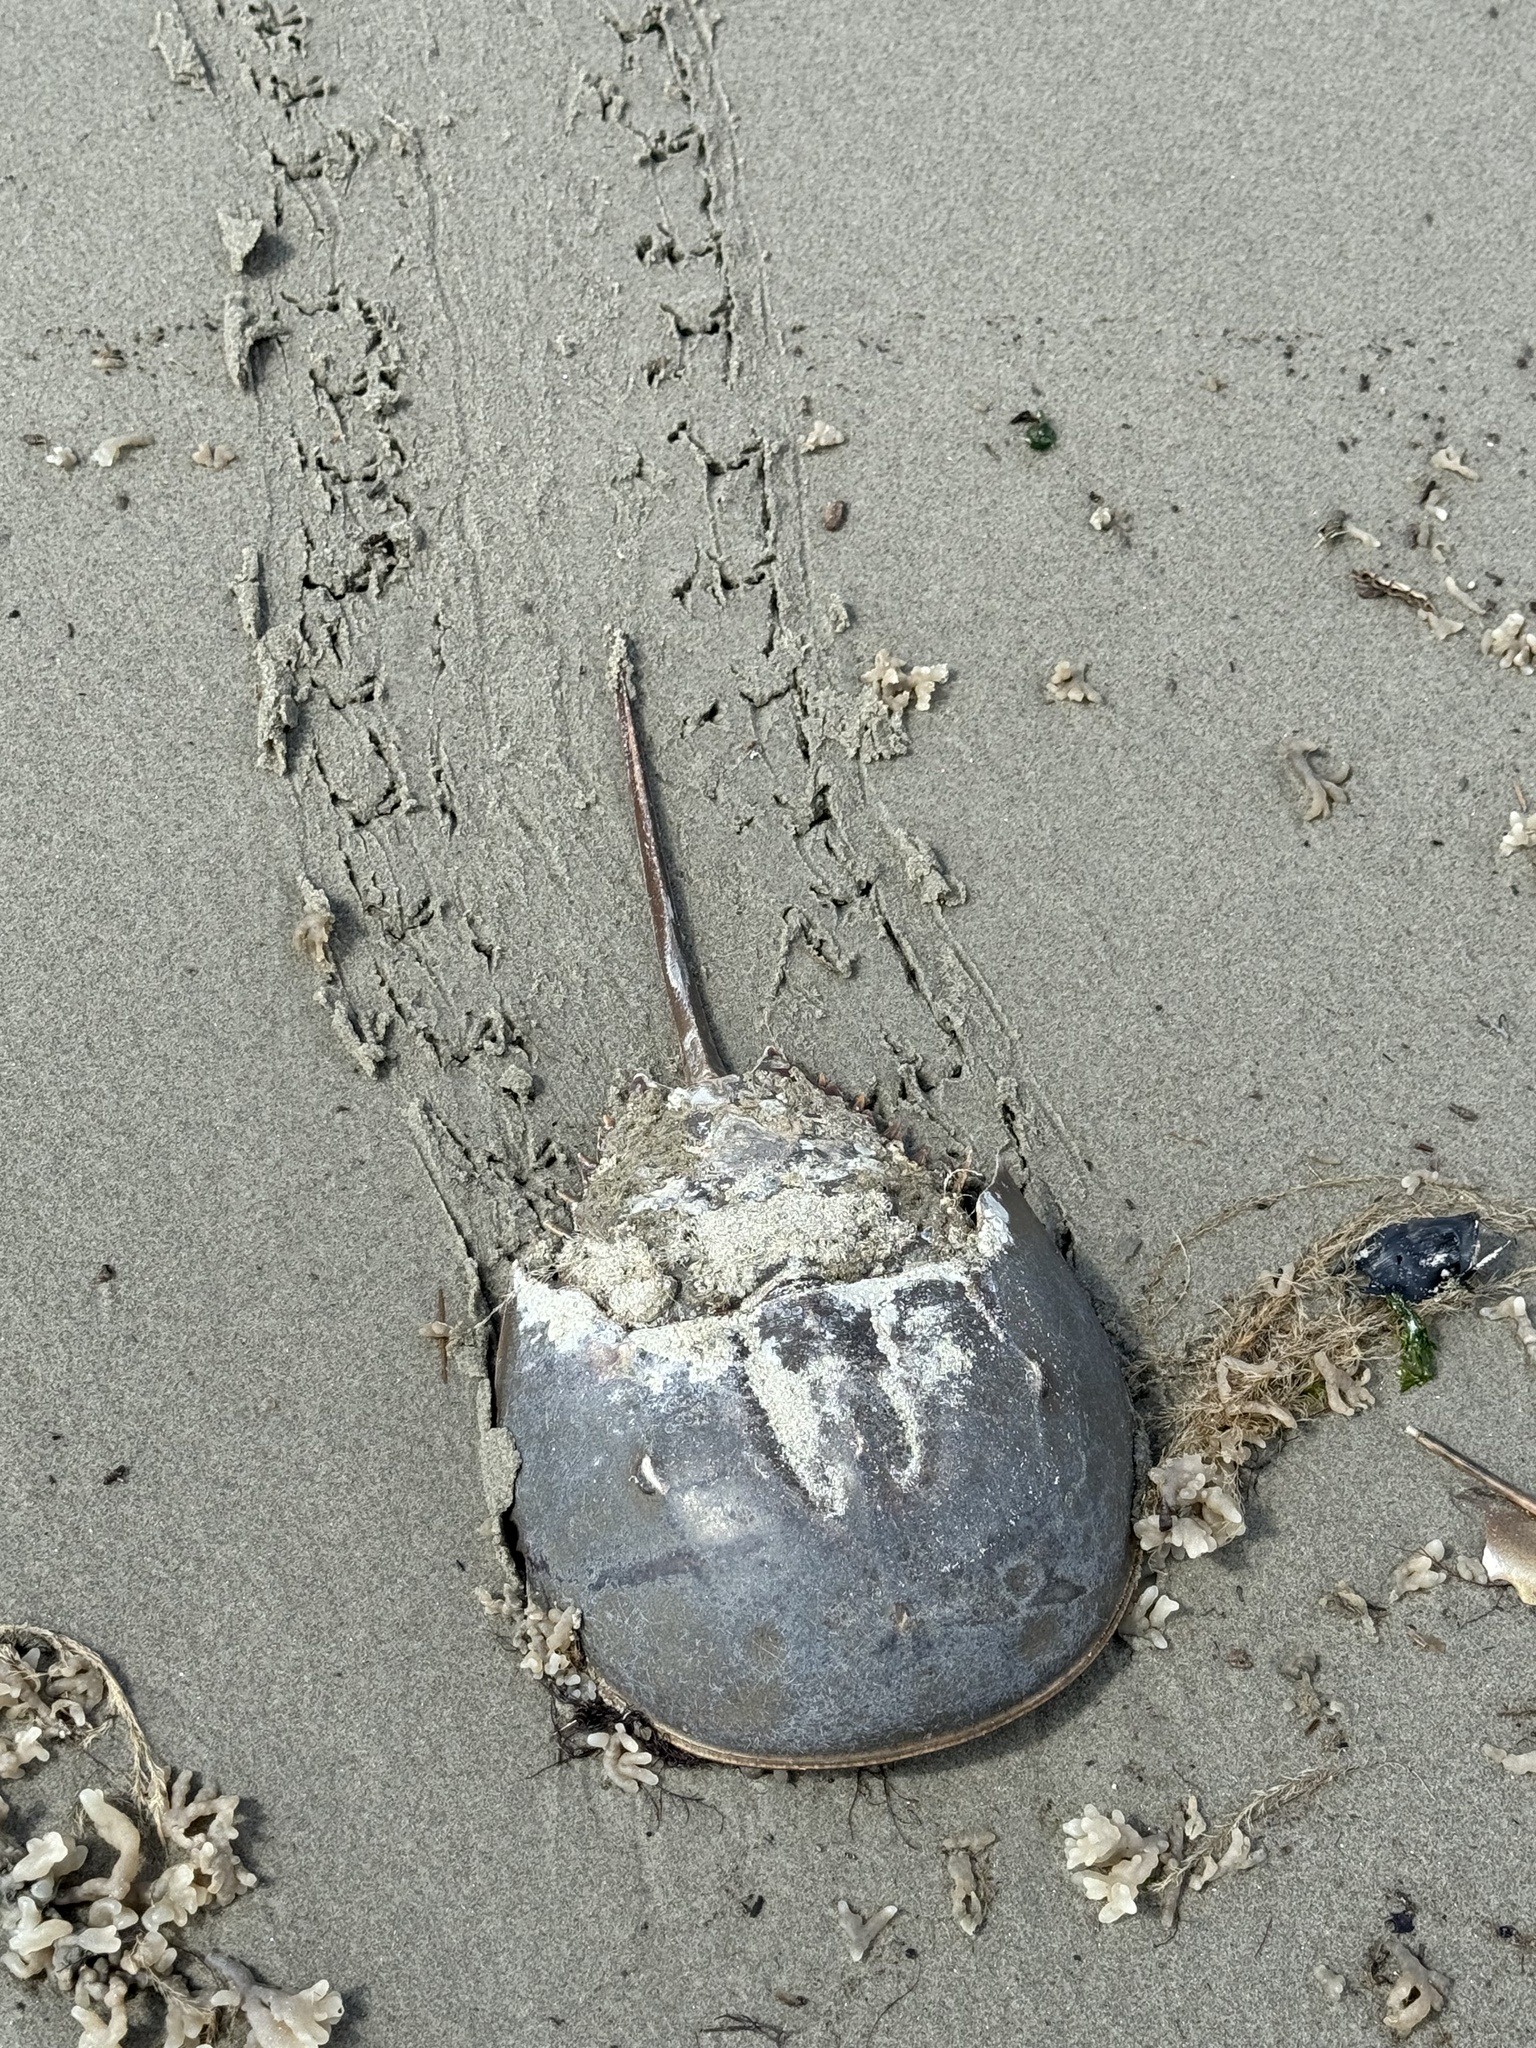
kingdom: Animalia
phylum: Arthropoda
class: Merostomata
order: Xiphosurida
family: Limulidae
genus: Limulus
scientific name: Limulus polyphemus
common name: Horseshoe crab
